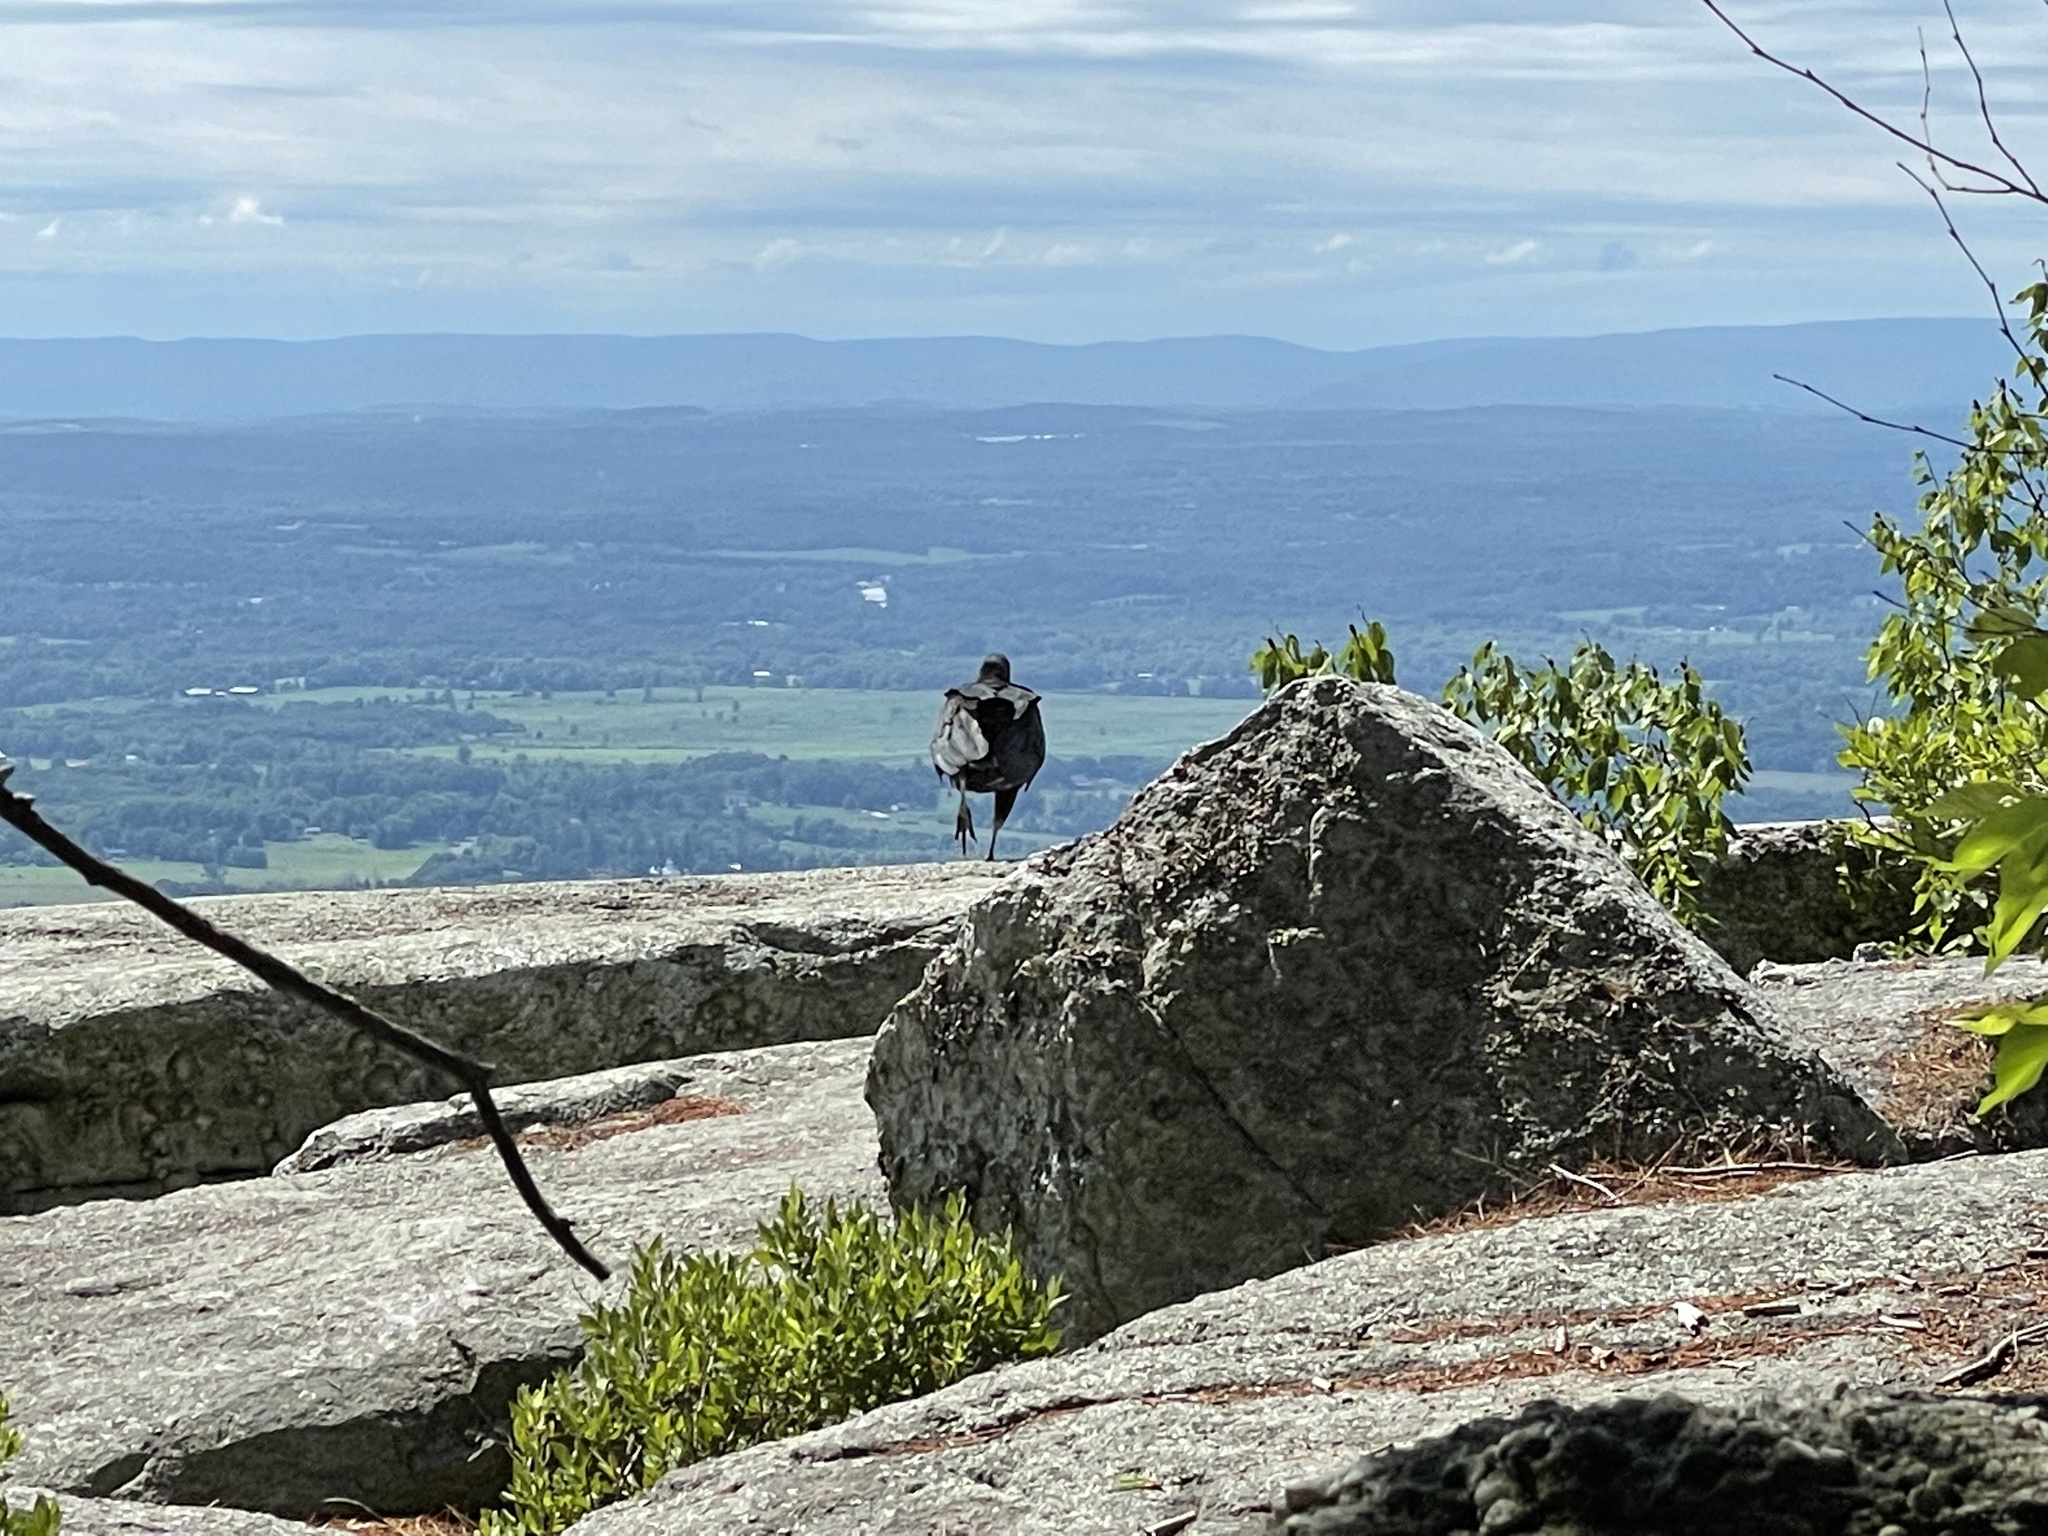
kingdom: Animalia
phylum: Chordata
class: Aves
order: Accipitriformes
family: Cathartidae
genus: Coragyps
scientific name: Coragyps atratus
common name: Black vulture
